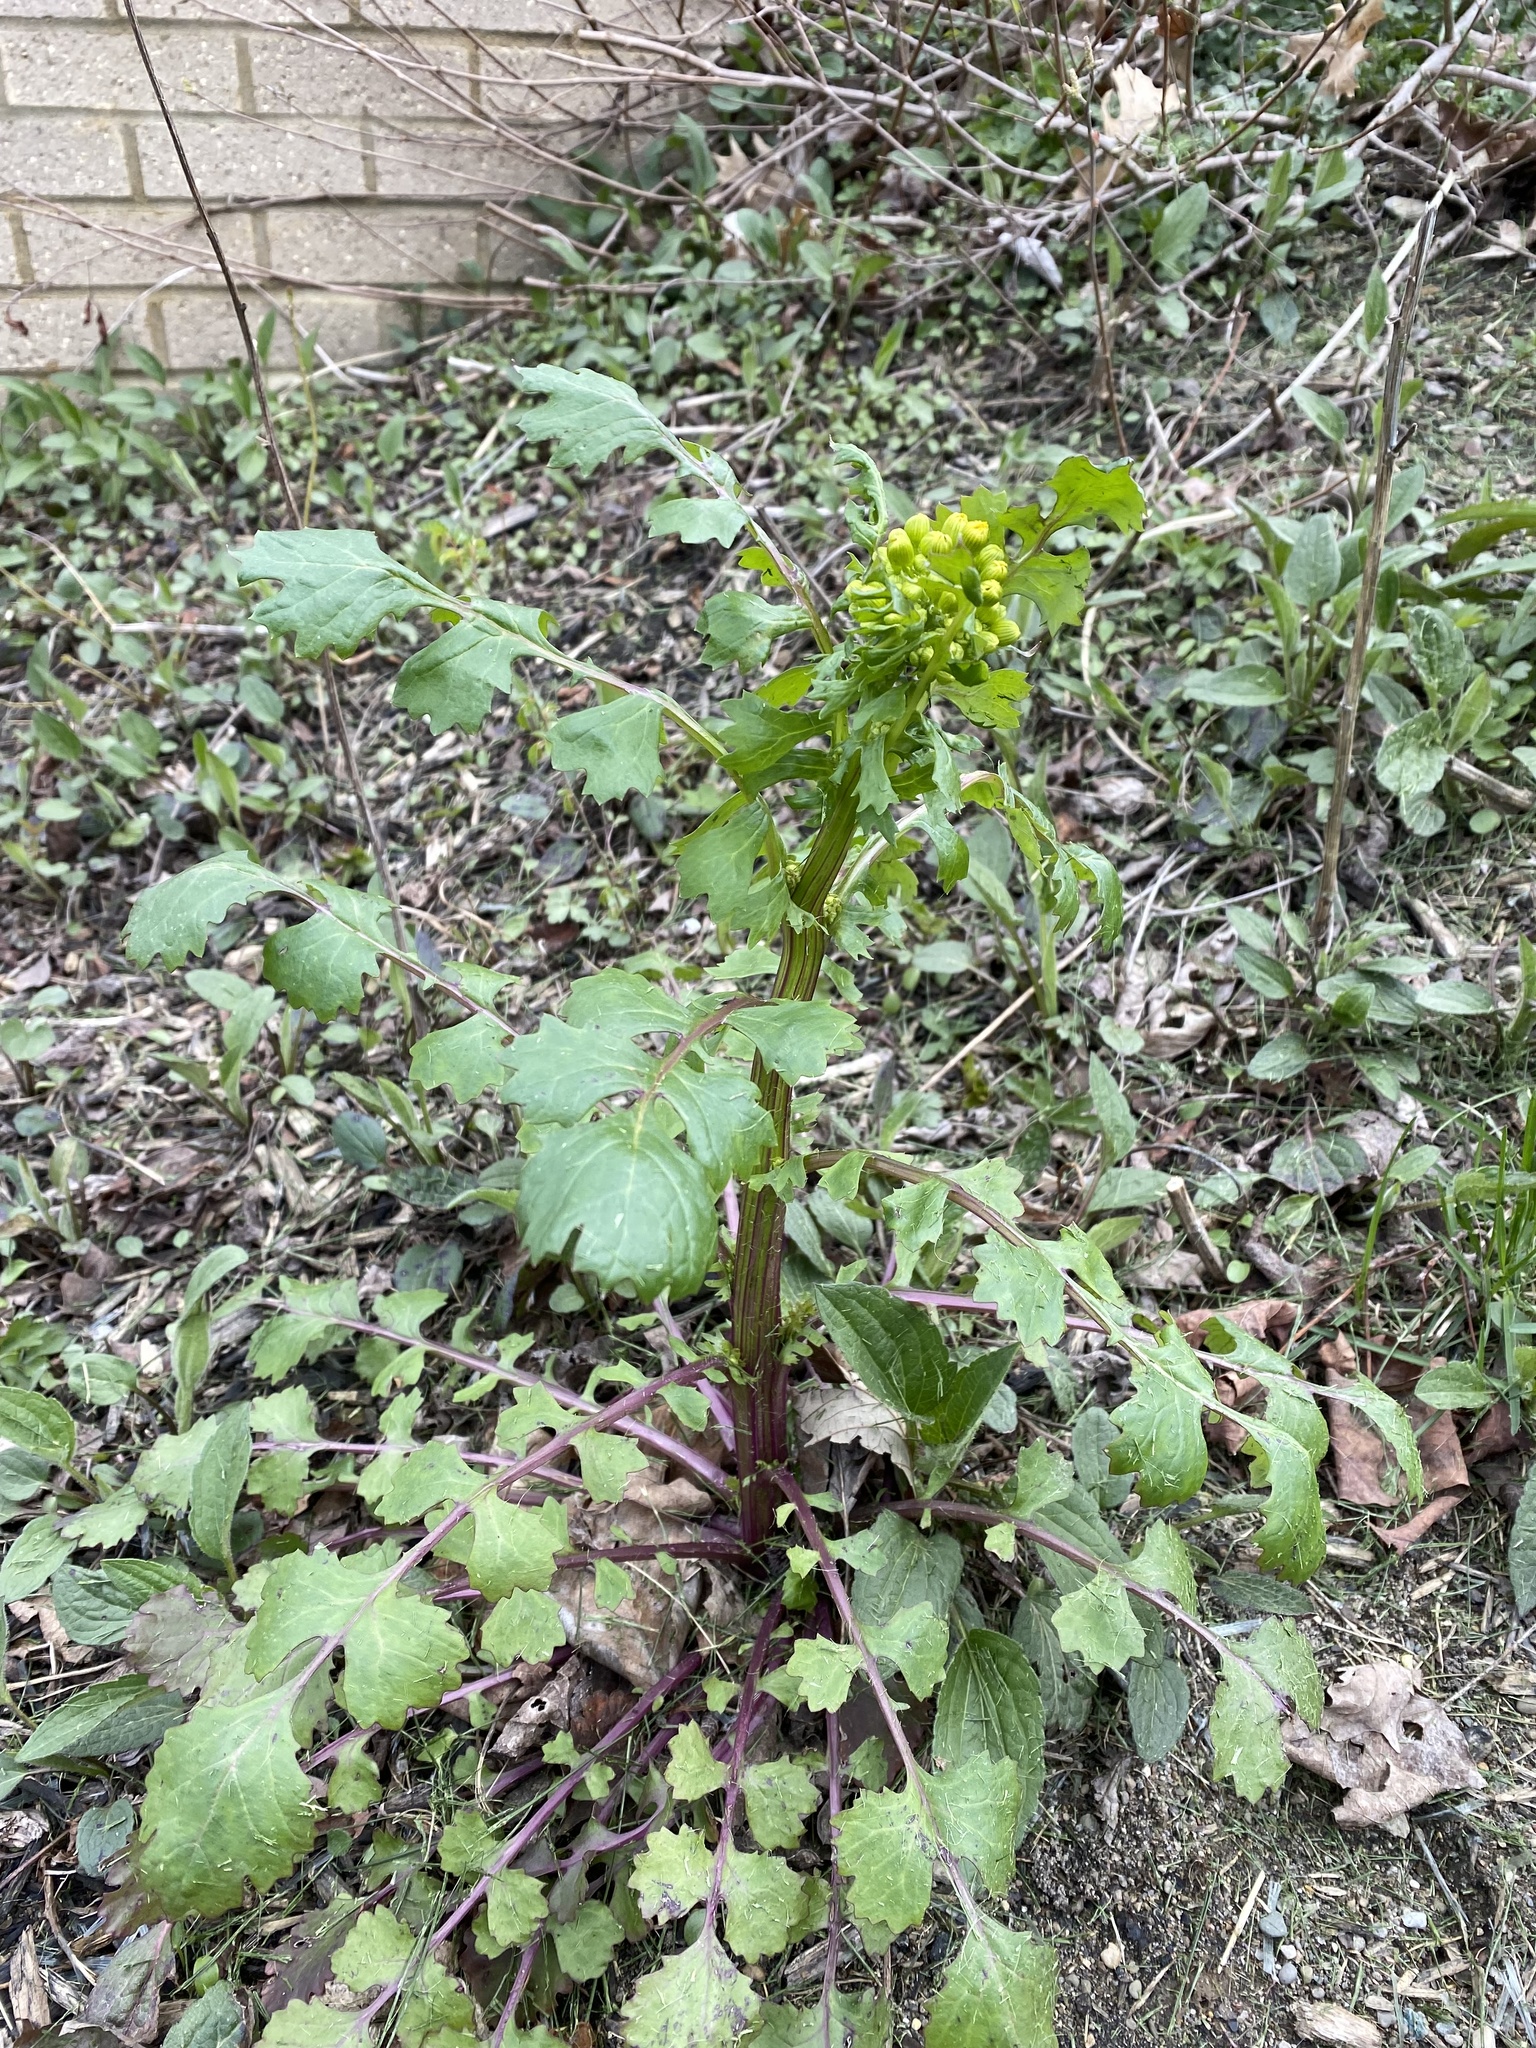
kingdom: Plantae
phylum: Tracheophyta
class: Magnoliopsida
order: Asterales
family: Asteraceae
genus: Packera
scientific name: Packera glabella
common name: Butterweed
